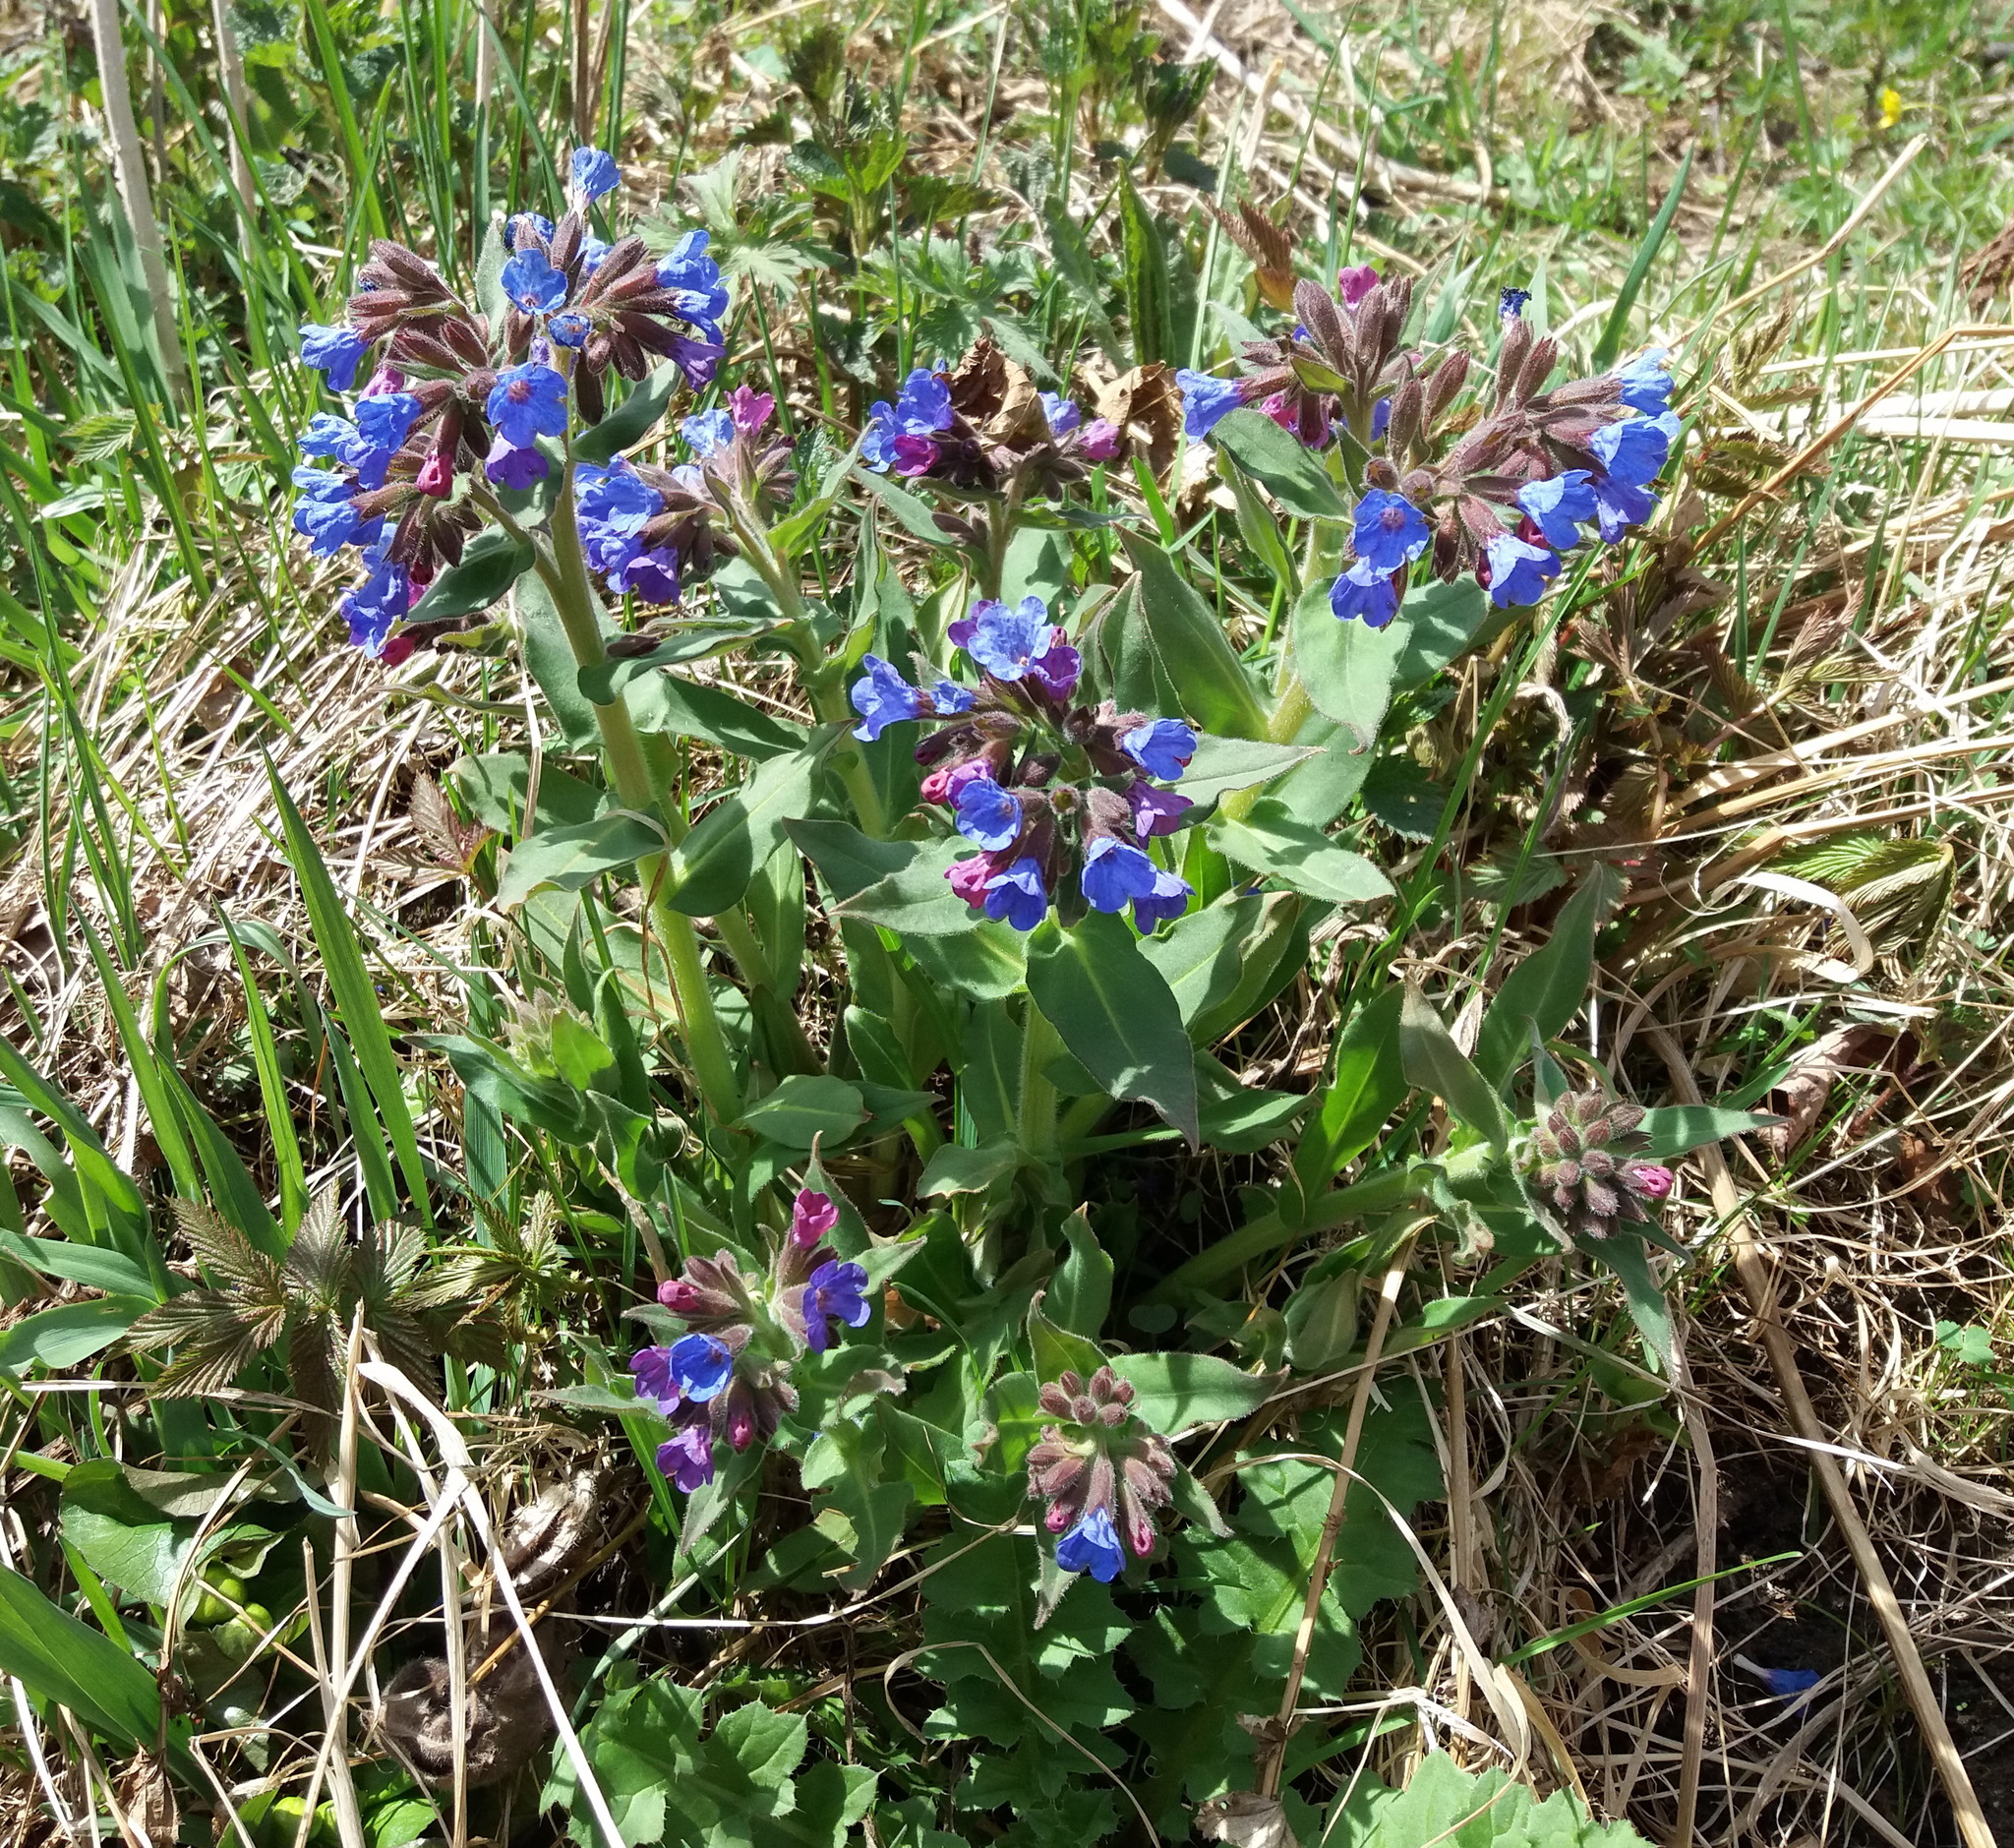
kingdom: Plantae
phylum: Tracheophyta
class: Magnoliopsida
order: Boraginales
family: Boraginaceae
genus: Pulmonaria
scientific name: Pulmonaria mollis
